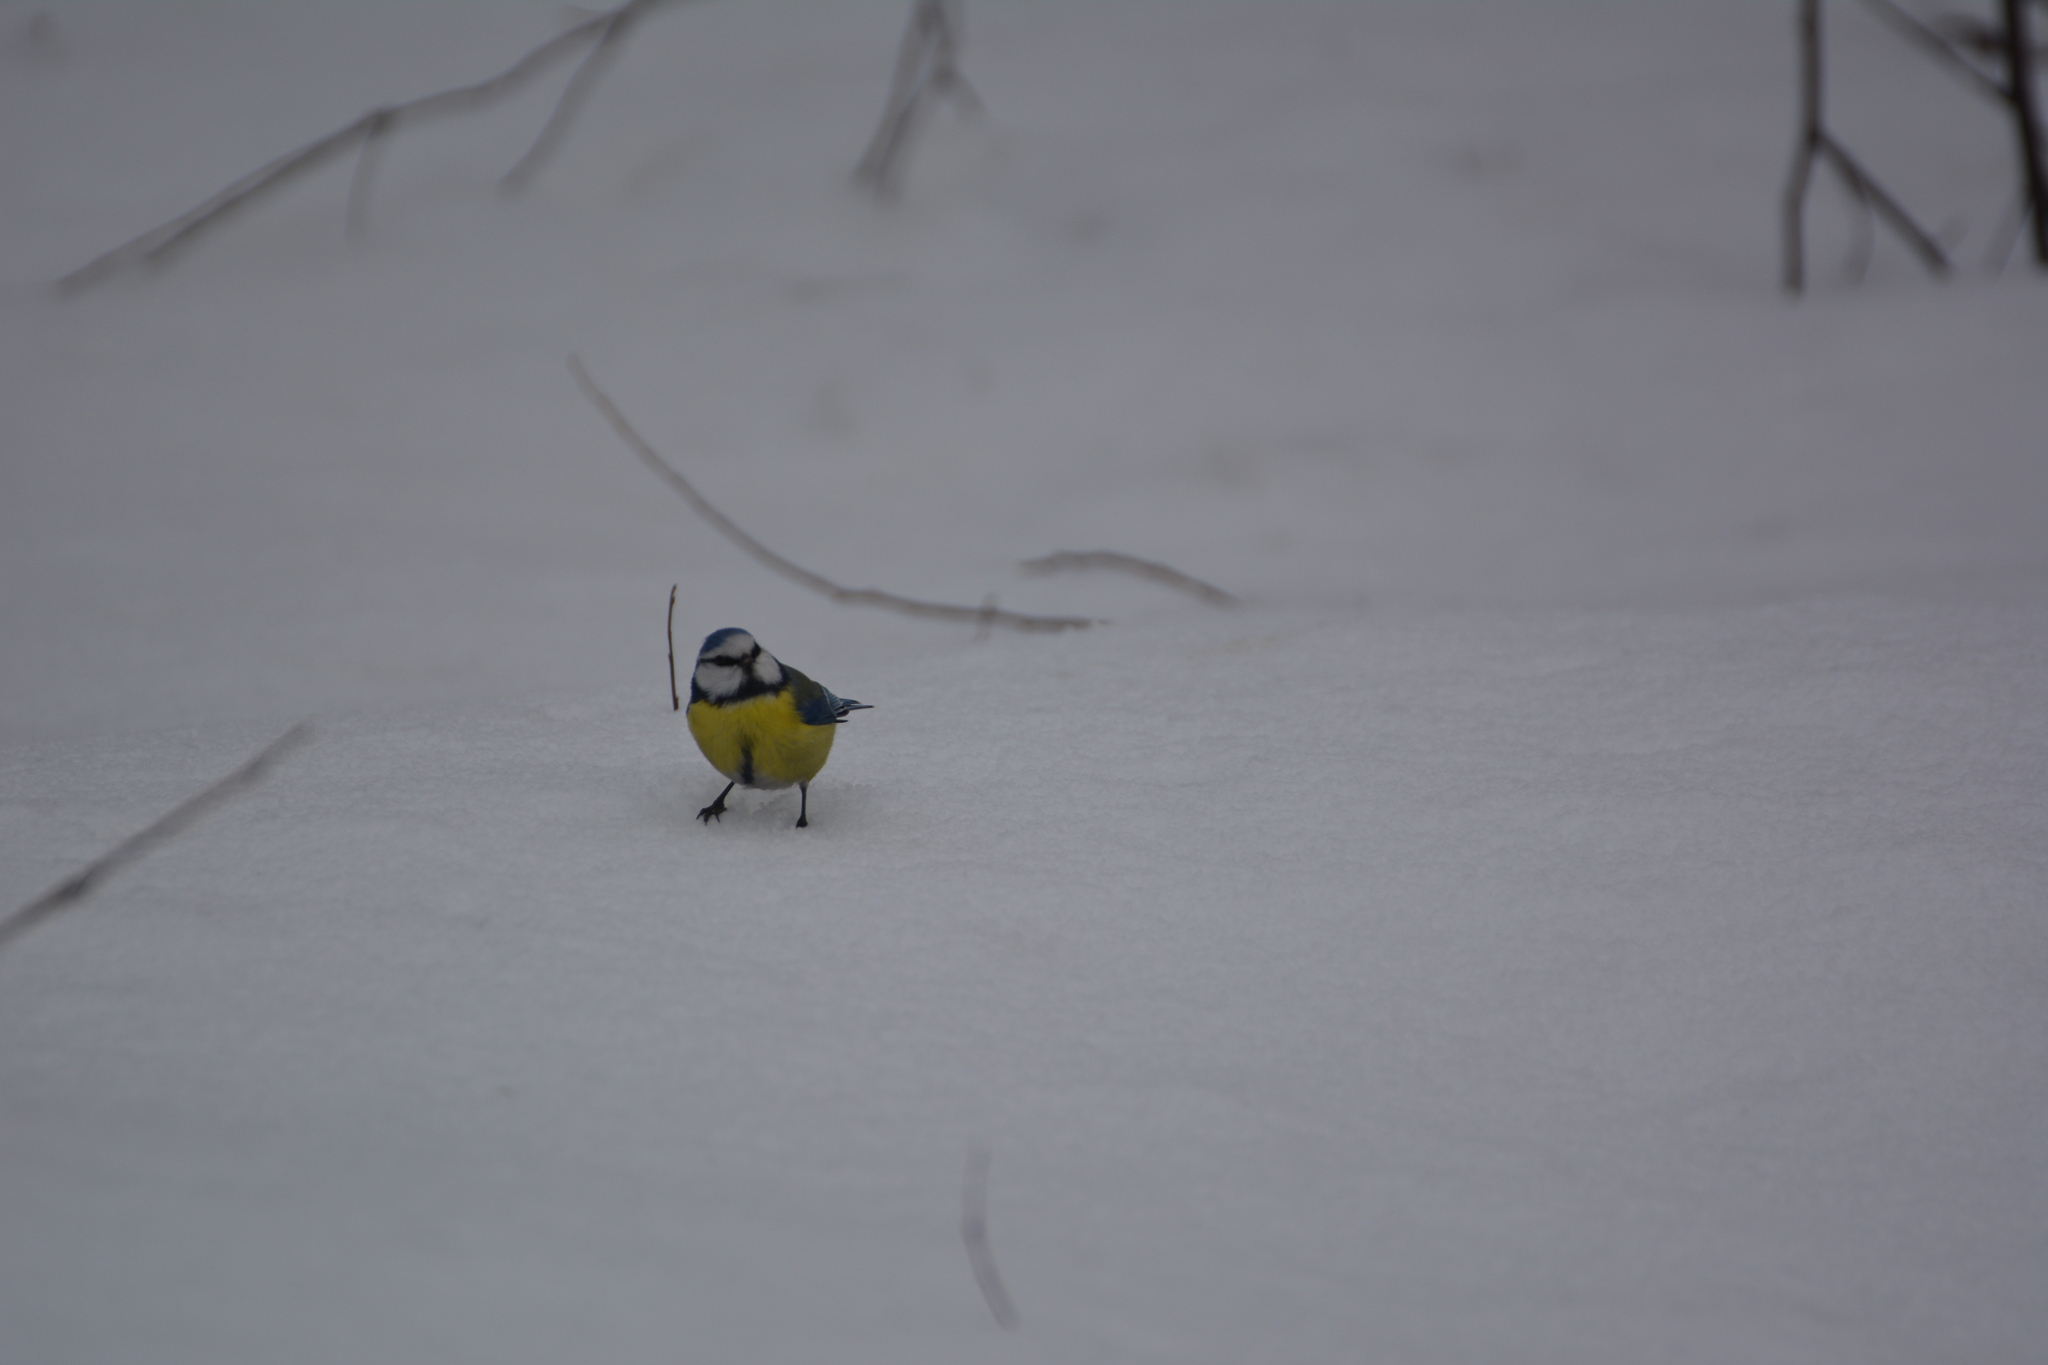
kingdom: Animalia
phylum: Chordata
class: Aves
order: Passeriformes
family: Paridae
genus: Cyanistes
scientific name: Cyanistes caeruleus
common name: Eurasian blue tit
